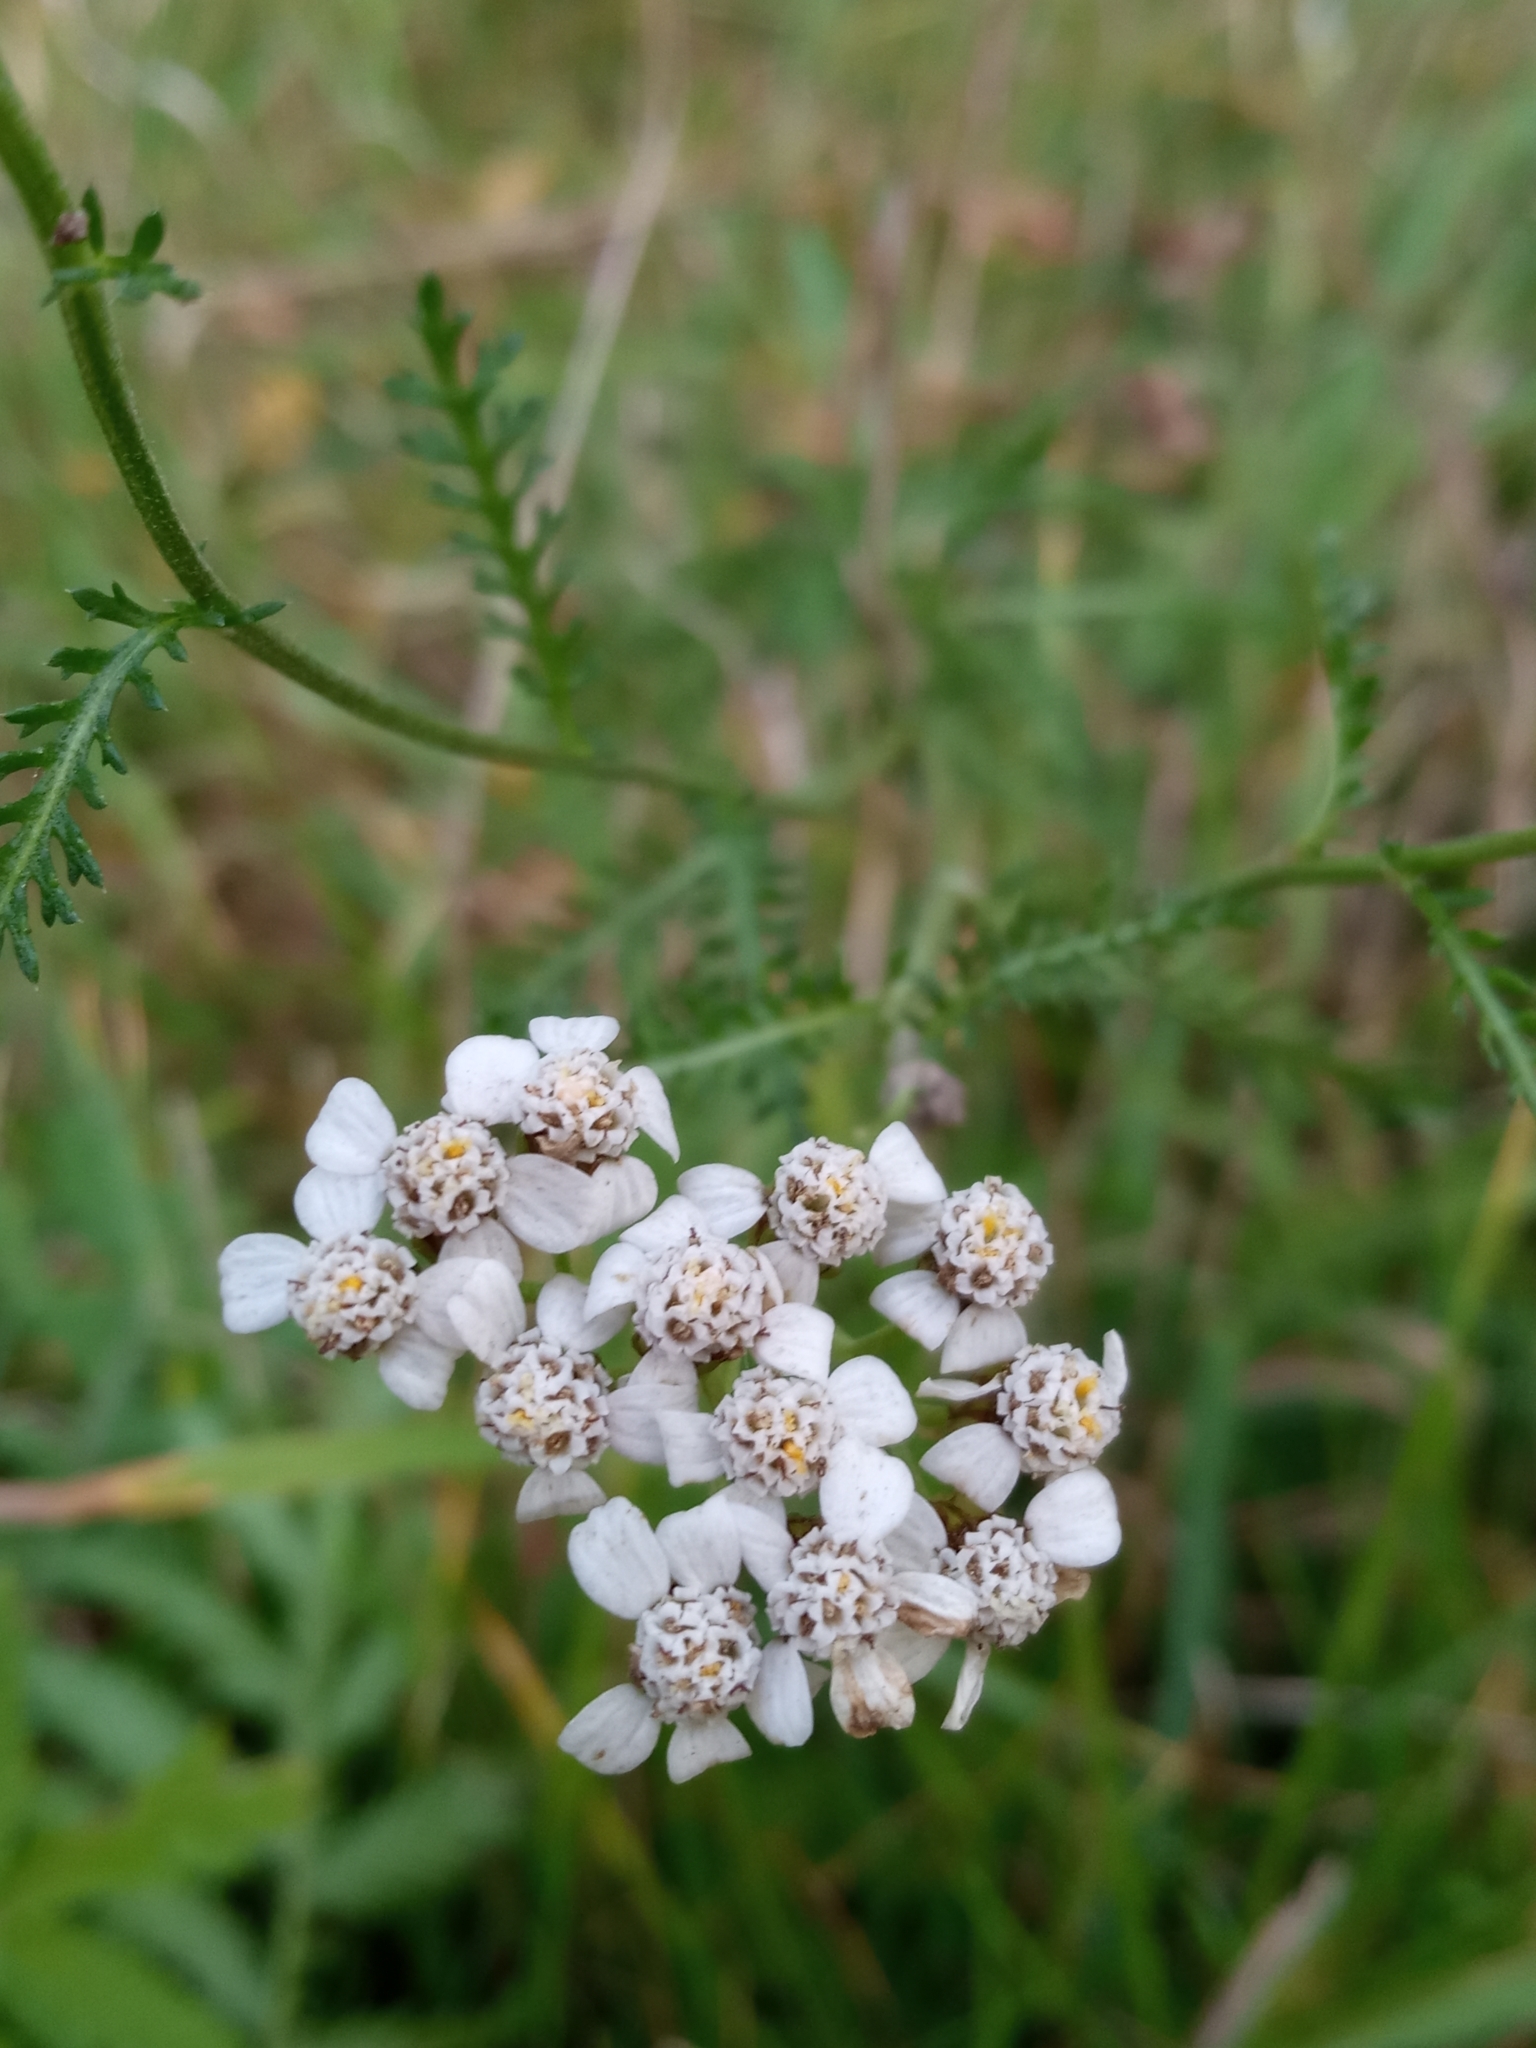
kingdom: Plantae
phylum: Tracheophyta
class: Magnoliopsida
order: Asterales
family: Asteraceae
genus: Achillea
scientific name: Achillea millefolium
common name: Yarrow
